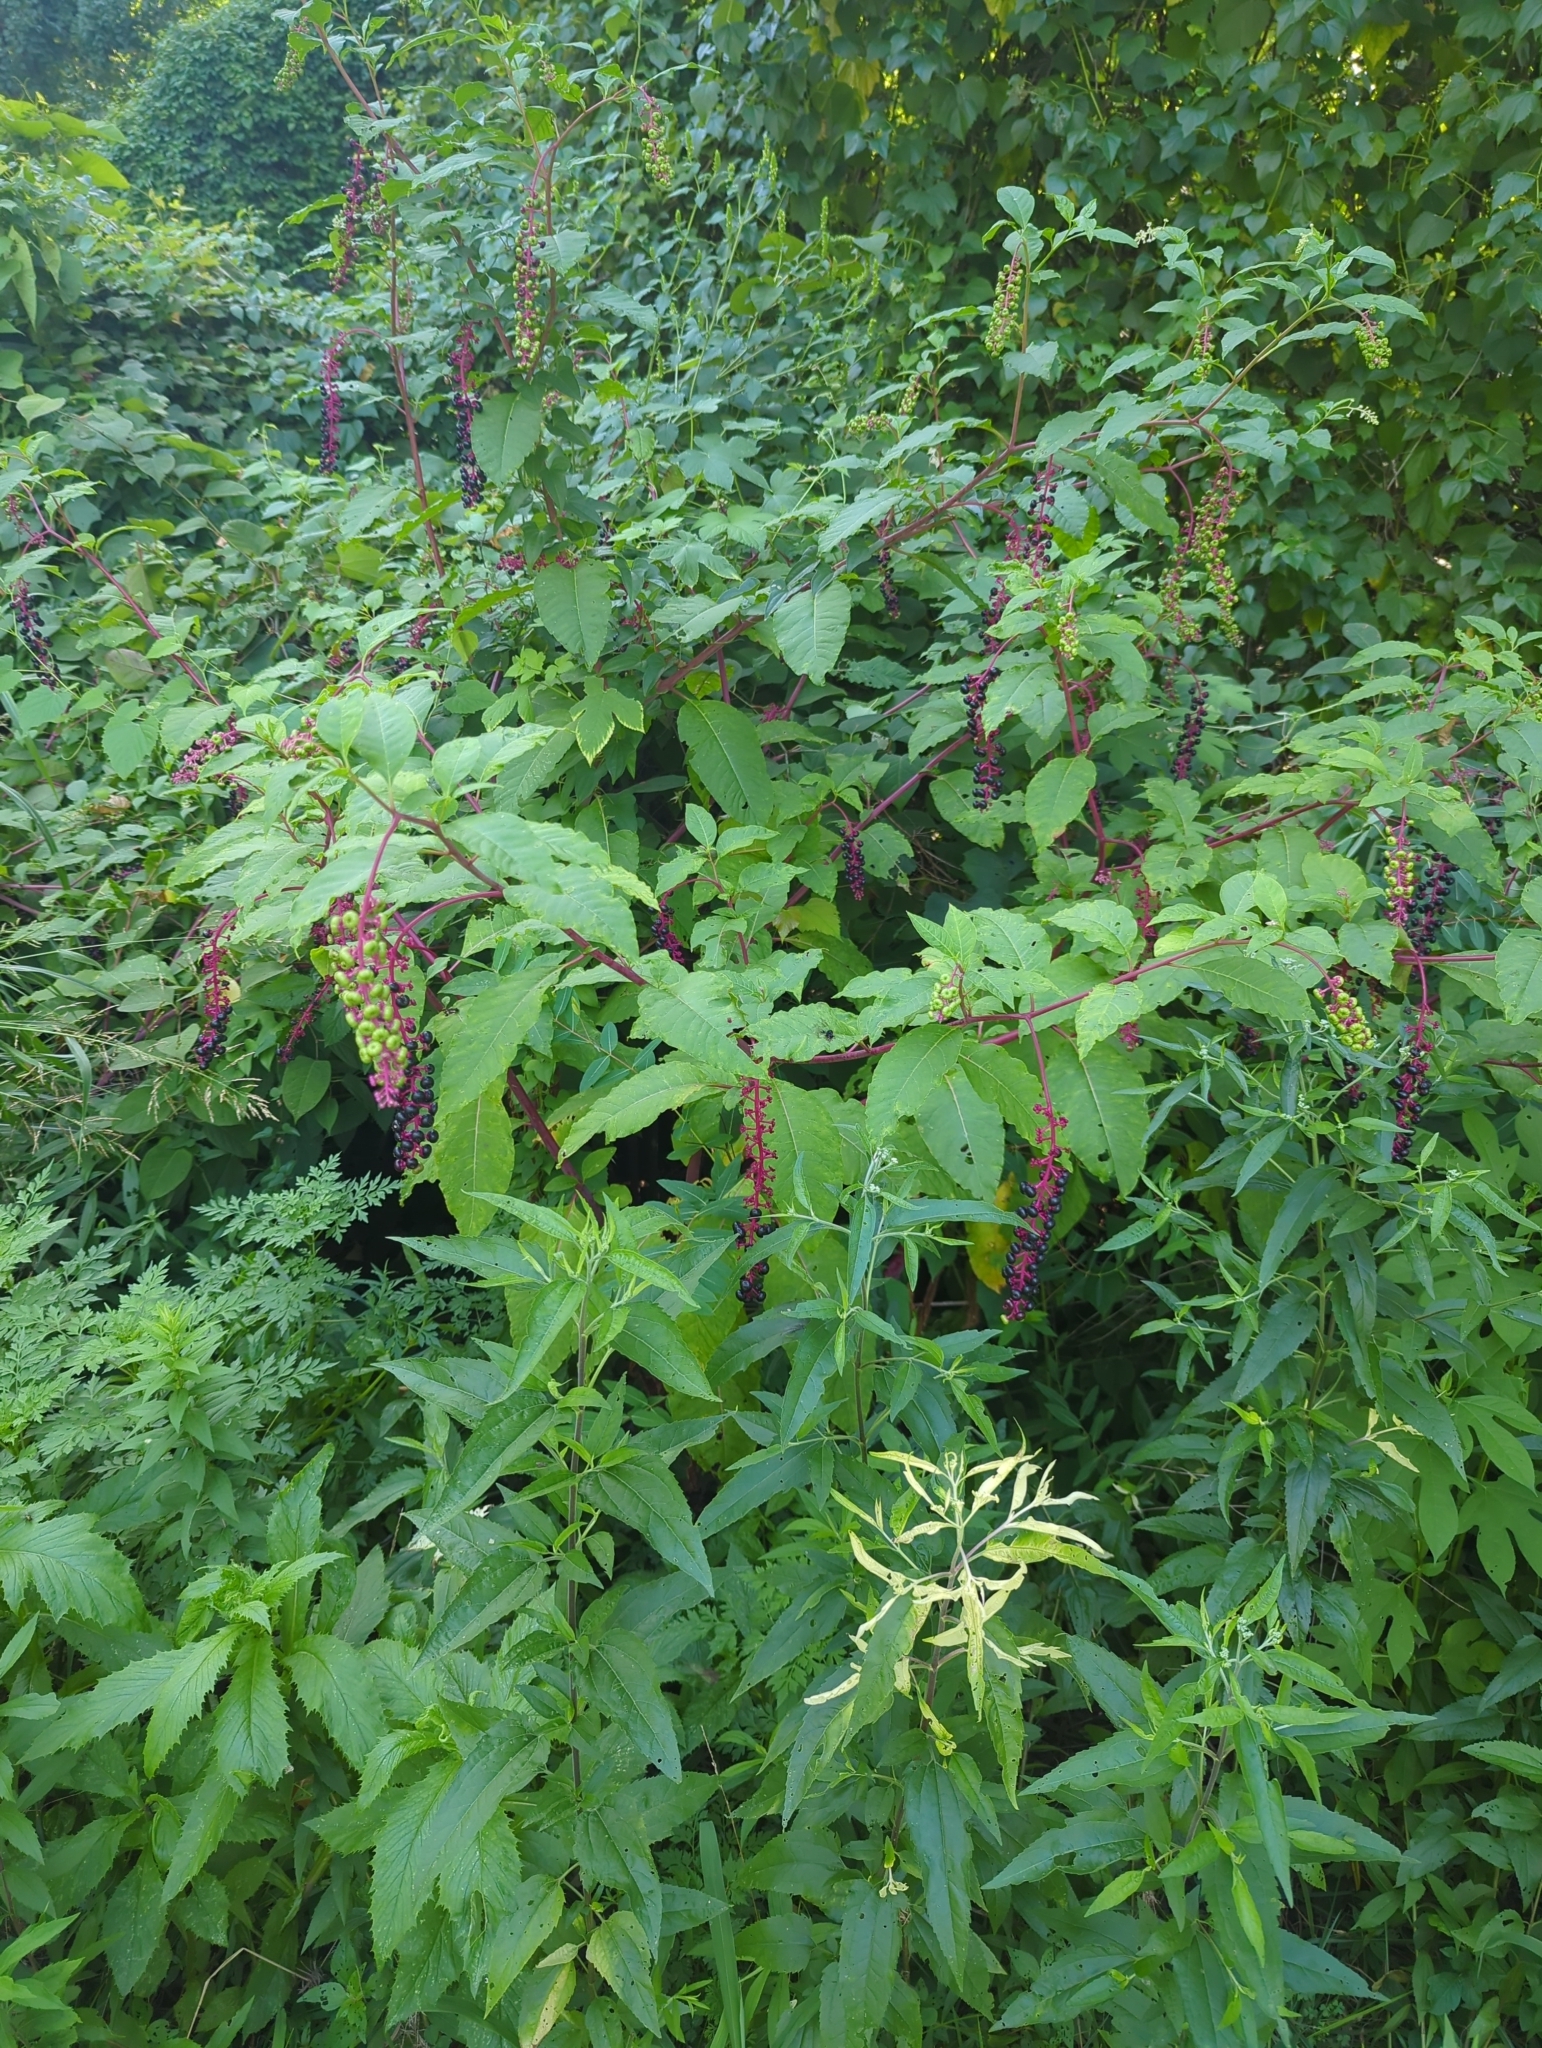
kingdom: Plantae
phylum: Tracheophyta
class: Magnoliopsida
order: Caryophyllales
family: Phytolaccaceae
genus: Phytolacca
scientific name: Phytolacca americana
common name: American pokeweed
